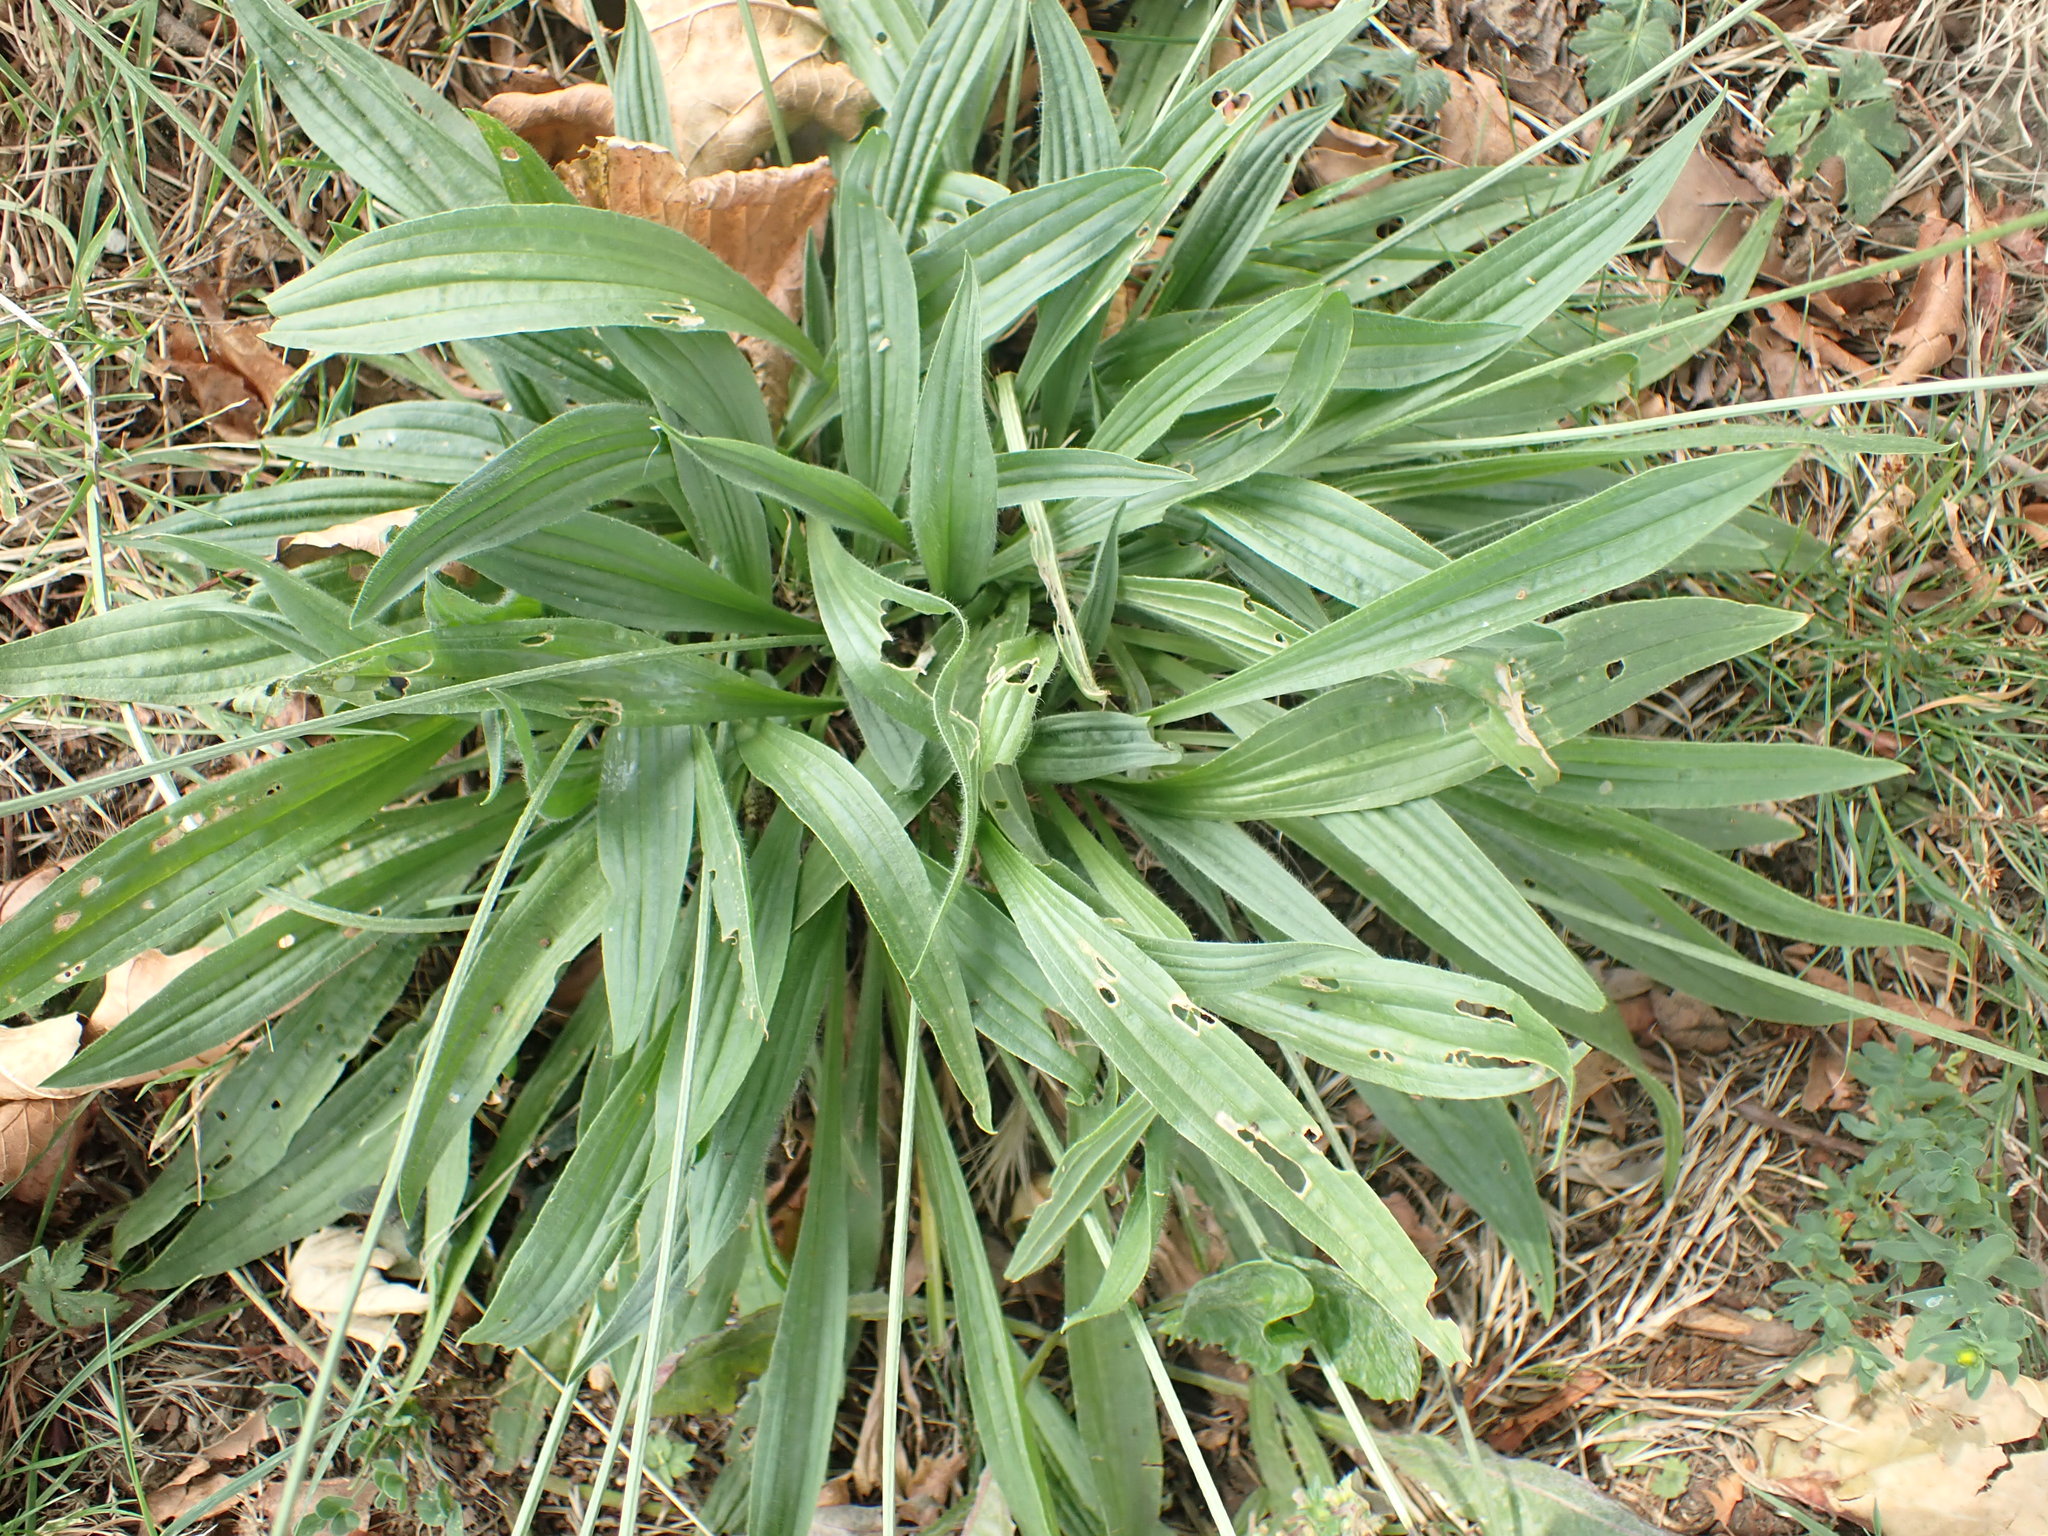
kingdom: Plantae
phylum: Tracheophyta
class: Magnoliopsida
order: Lamiales
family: Plantaginaceae
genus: Plantago
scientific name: Plantago lanceolata
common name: Ribwort plantain
